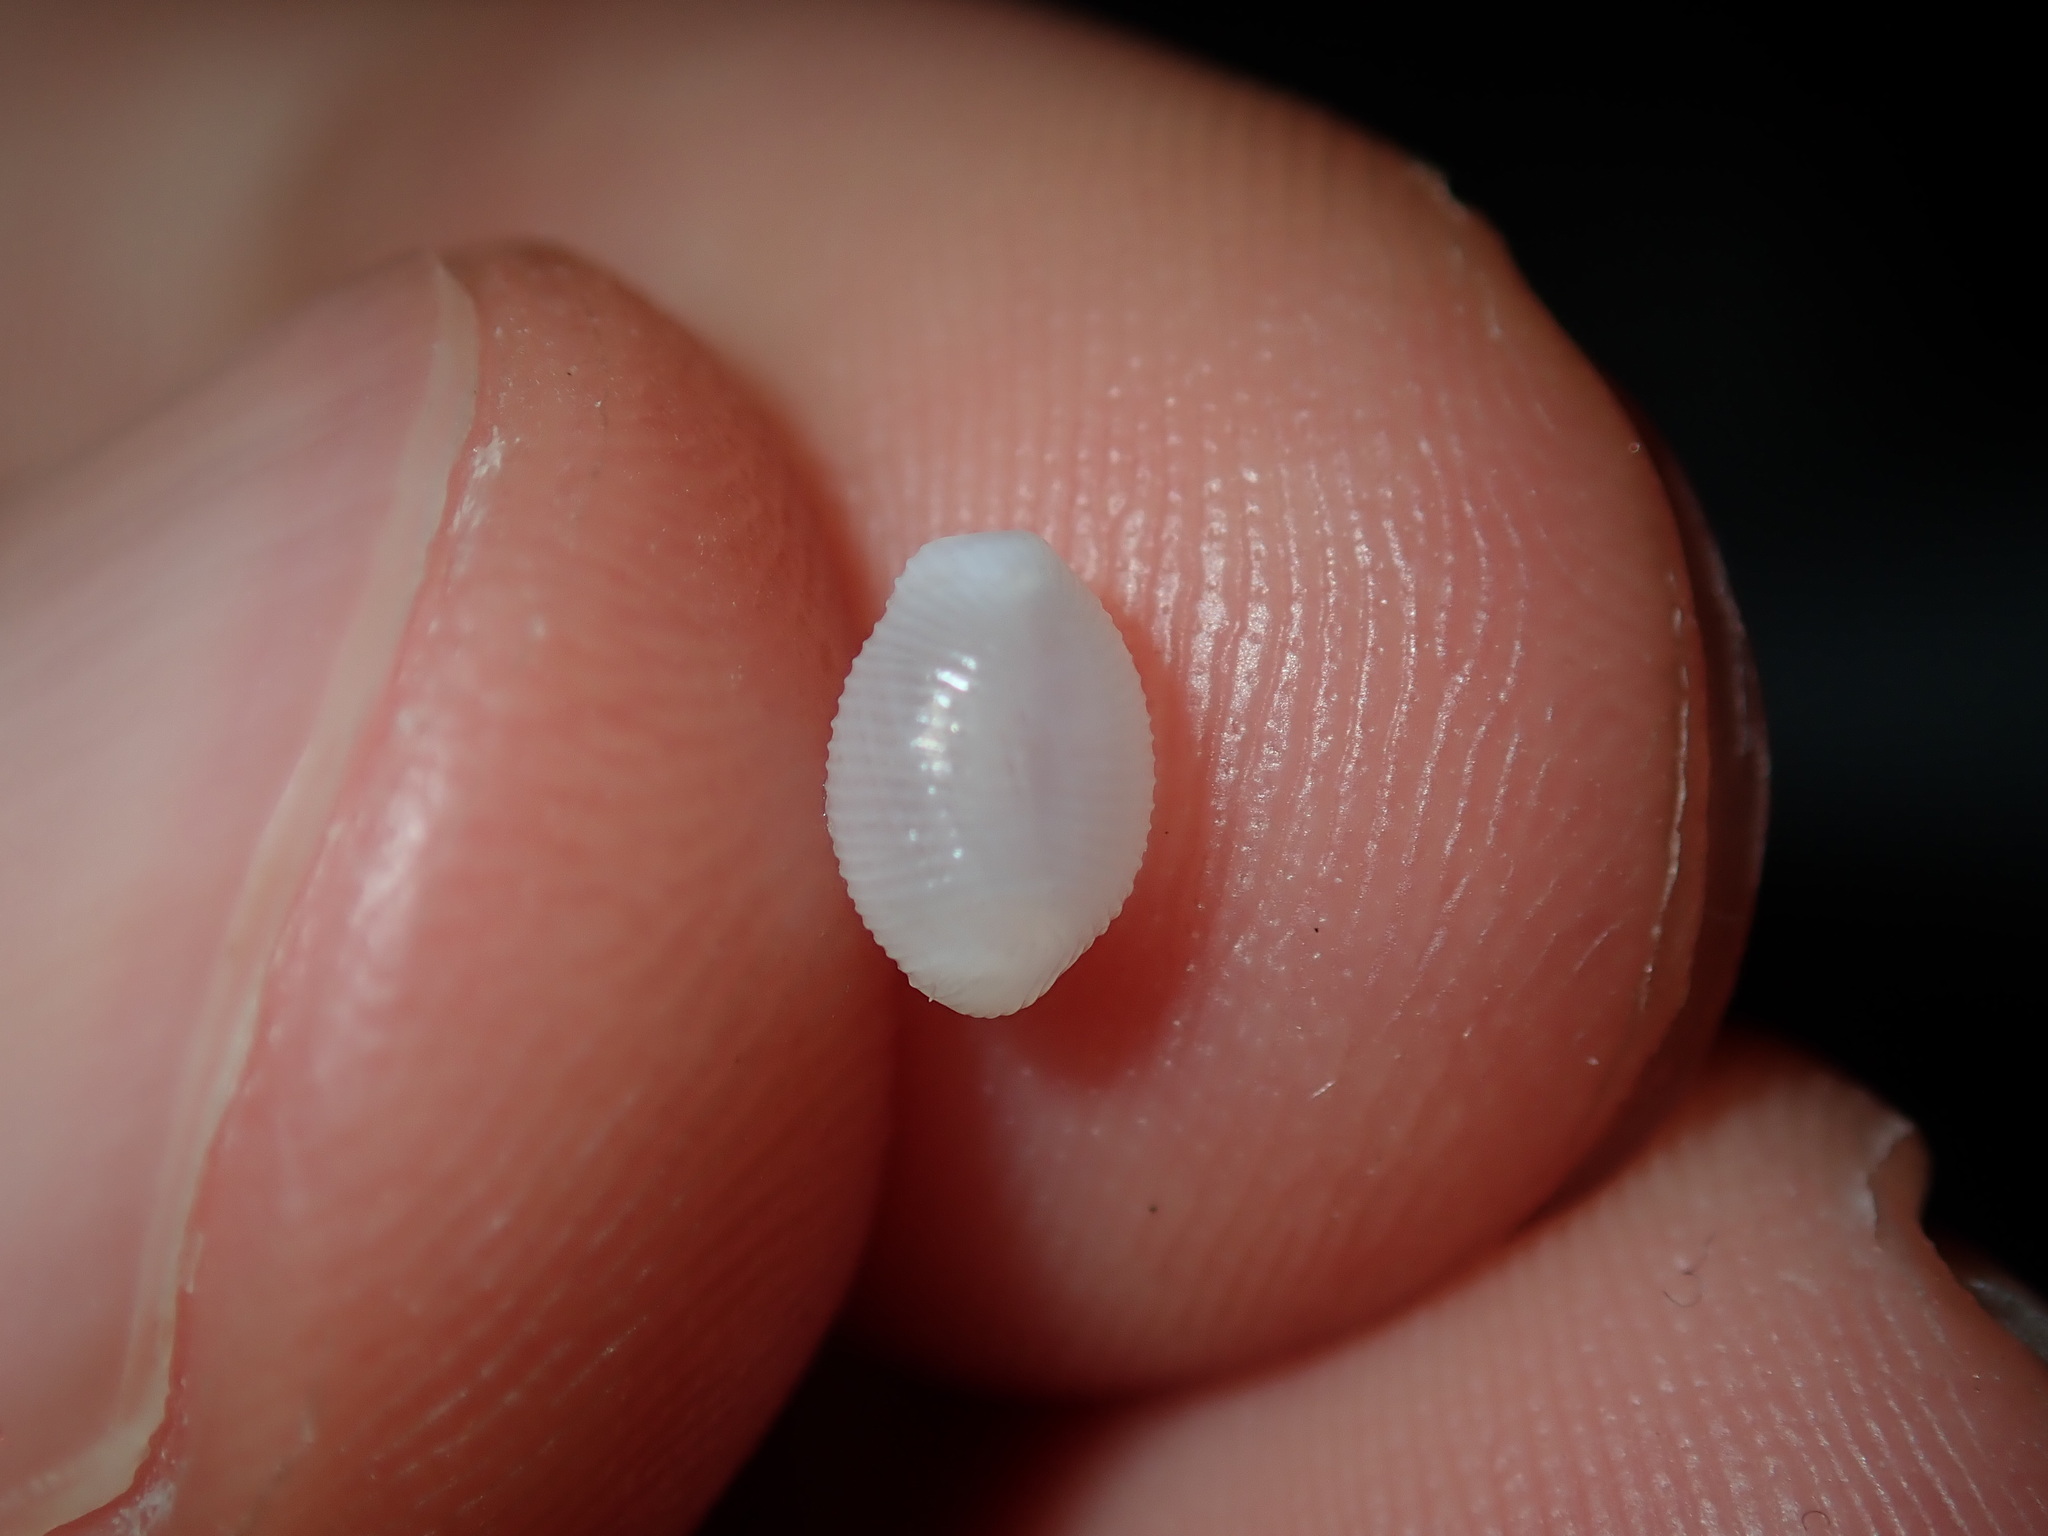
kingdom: Animalia
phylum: Mollusca
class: Gastropoda
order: Littorinimorpha
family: Triviidae
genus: Trivirostra
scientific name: Trivirostra oryza
